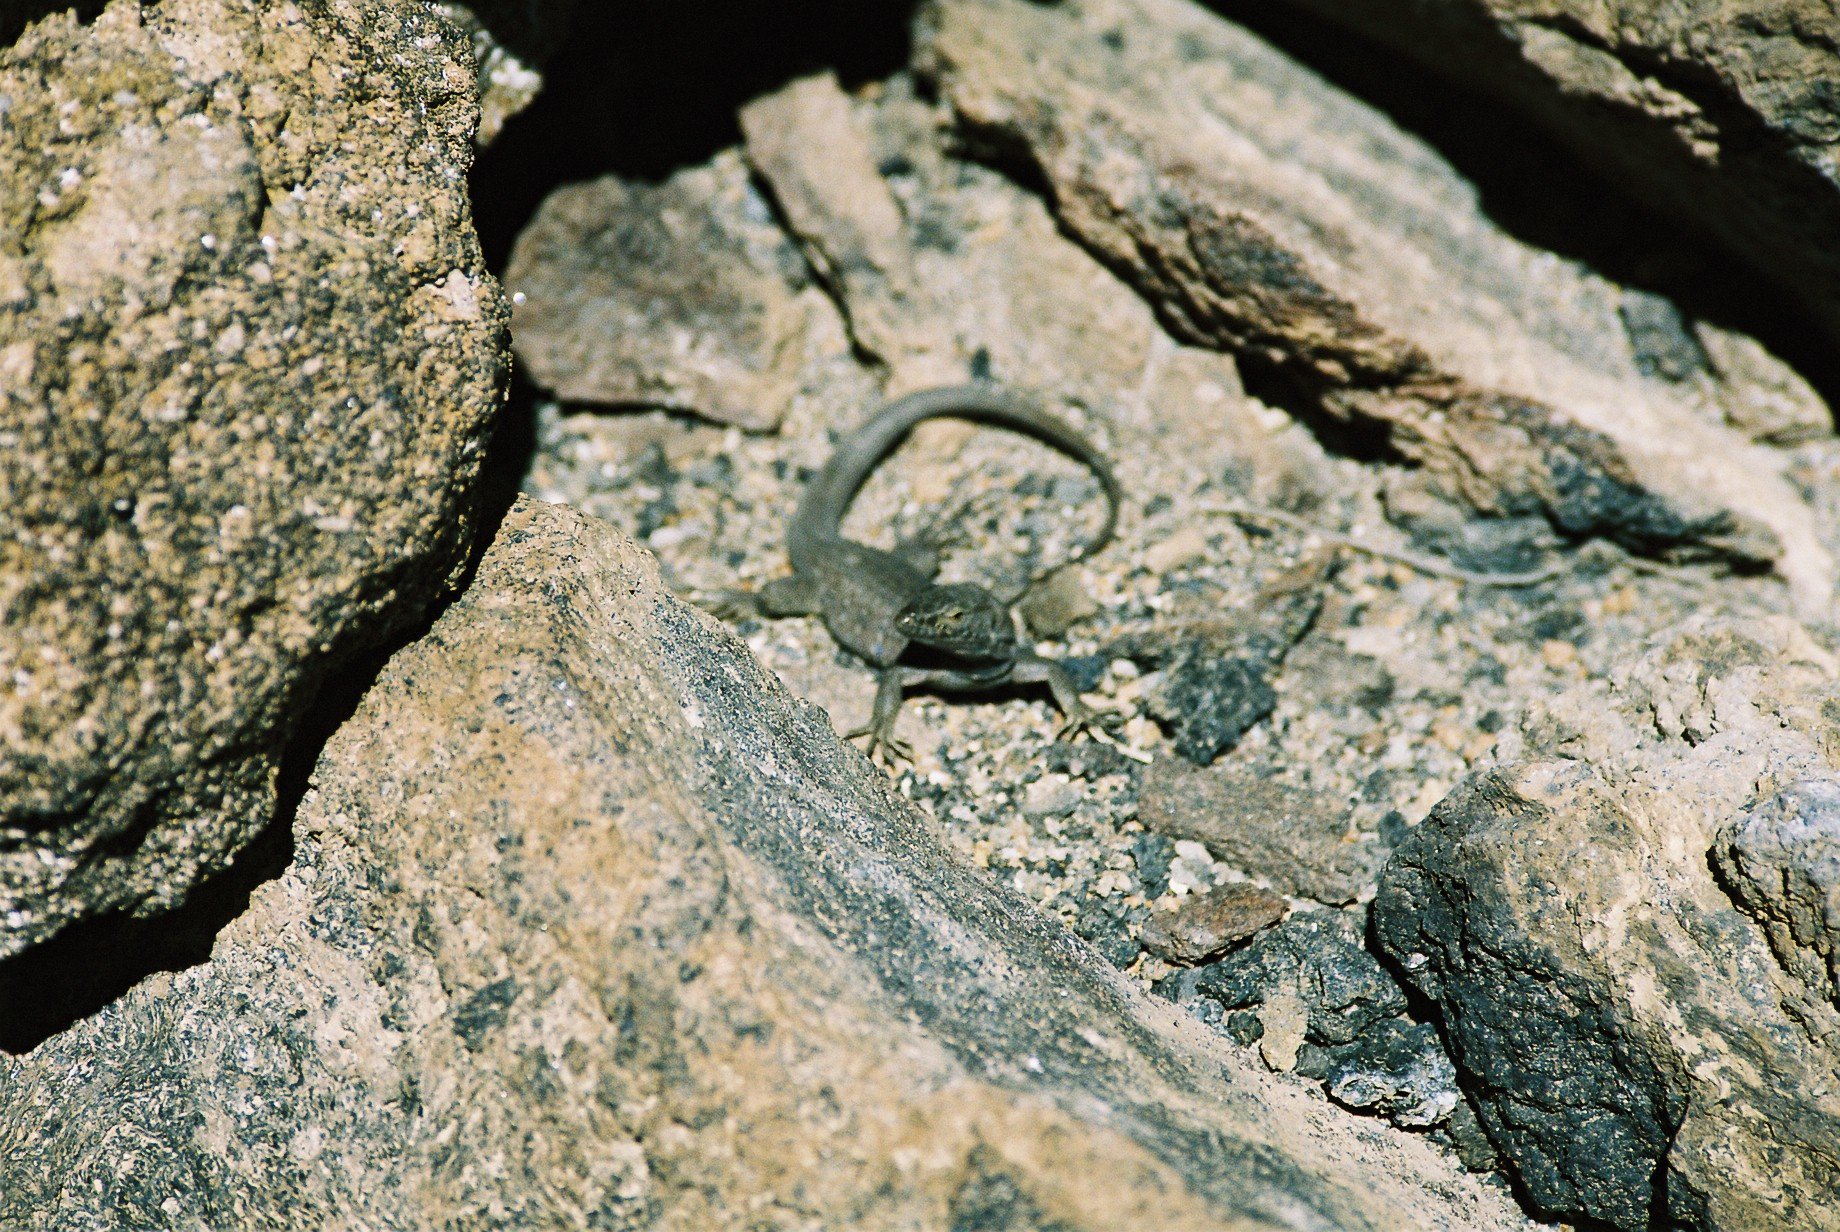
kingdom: Animalia
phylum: Chordata
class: Squamata
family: Lacertidae
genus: Gallotia
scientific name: Gallotia galloti
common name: Gallot's lizard
